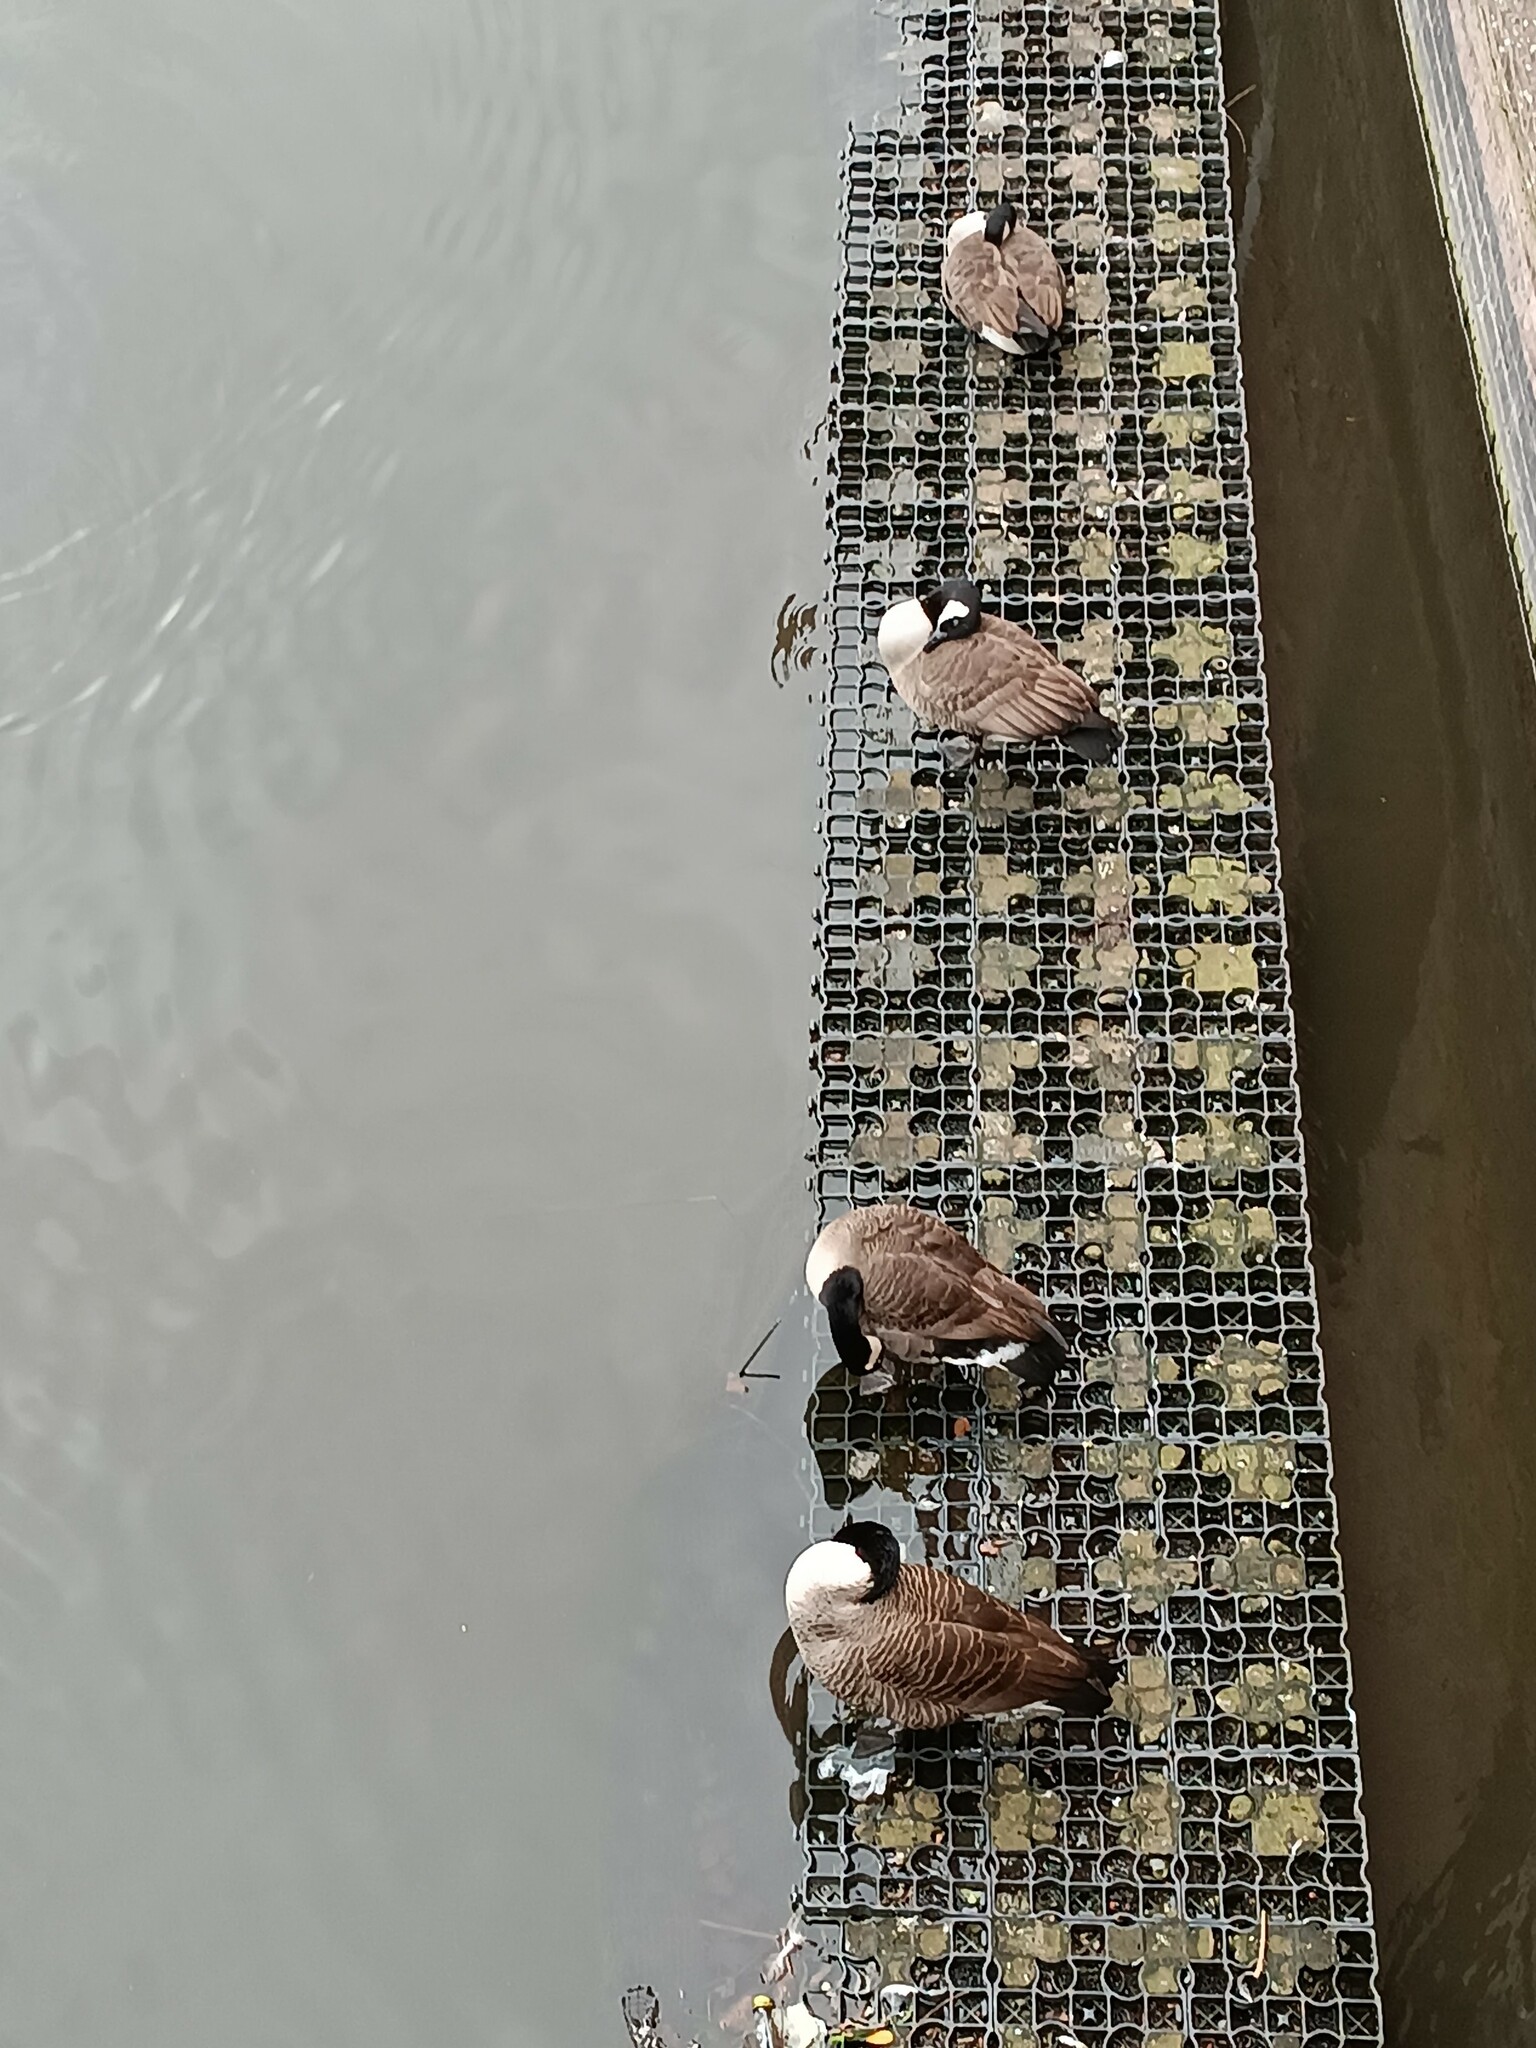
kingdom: Animalia
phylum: Chordata
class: Aves
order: Anseriformes
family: Anatidae
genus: Branta
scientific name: Branta canadensis
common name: Canada goose
